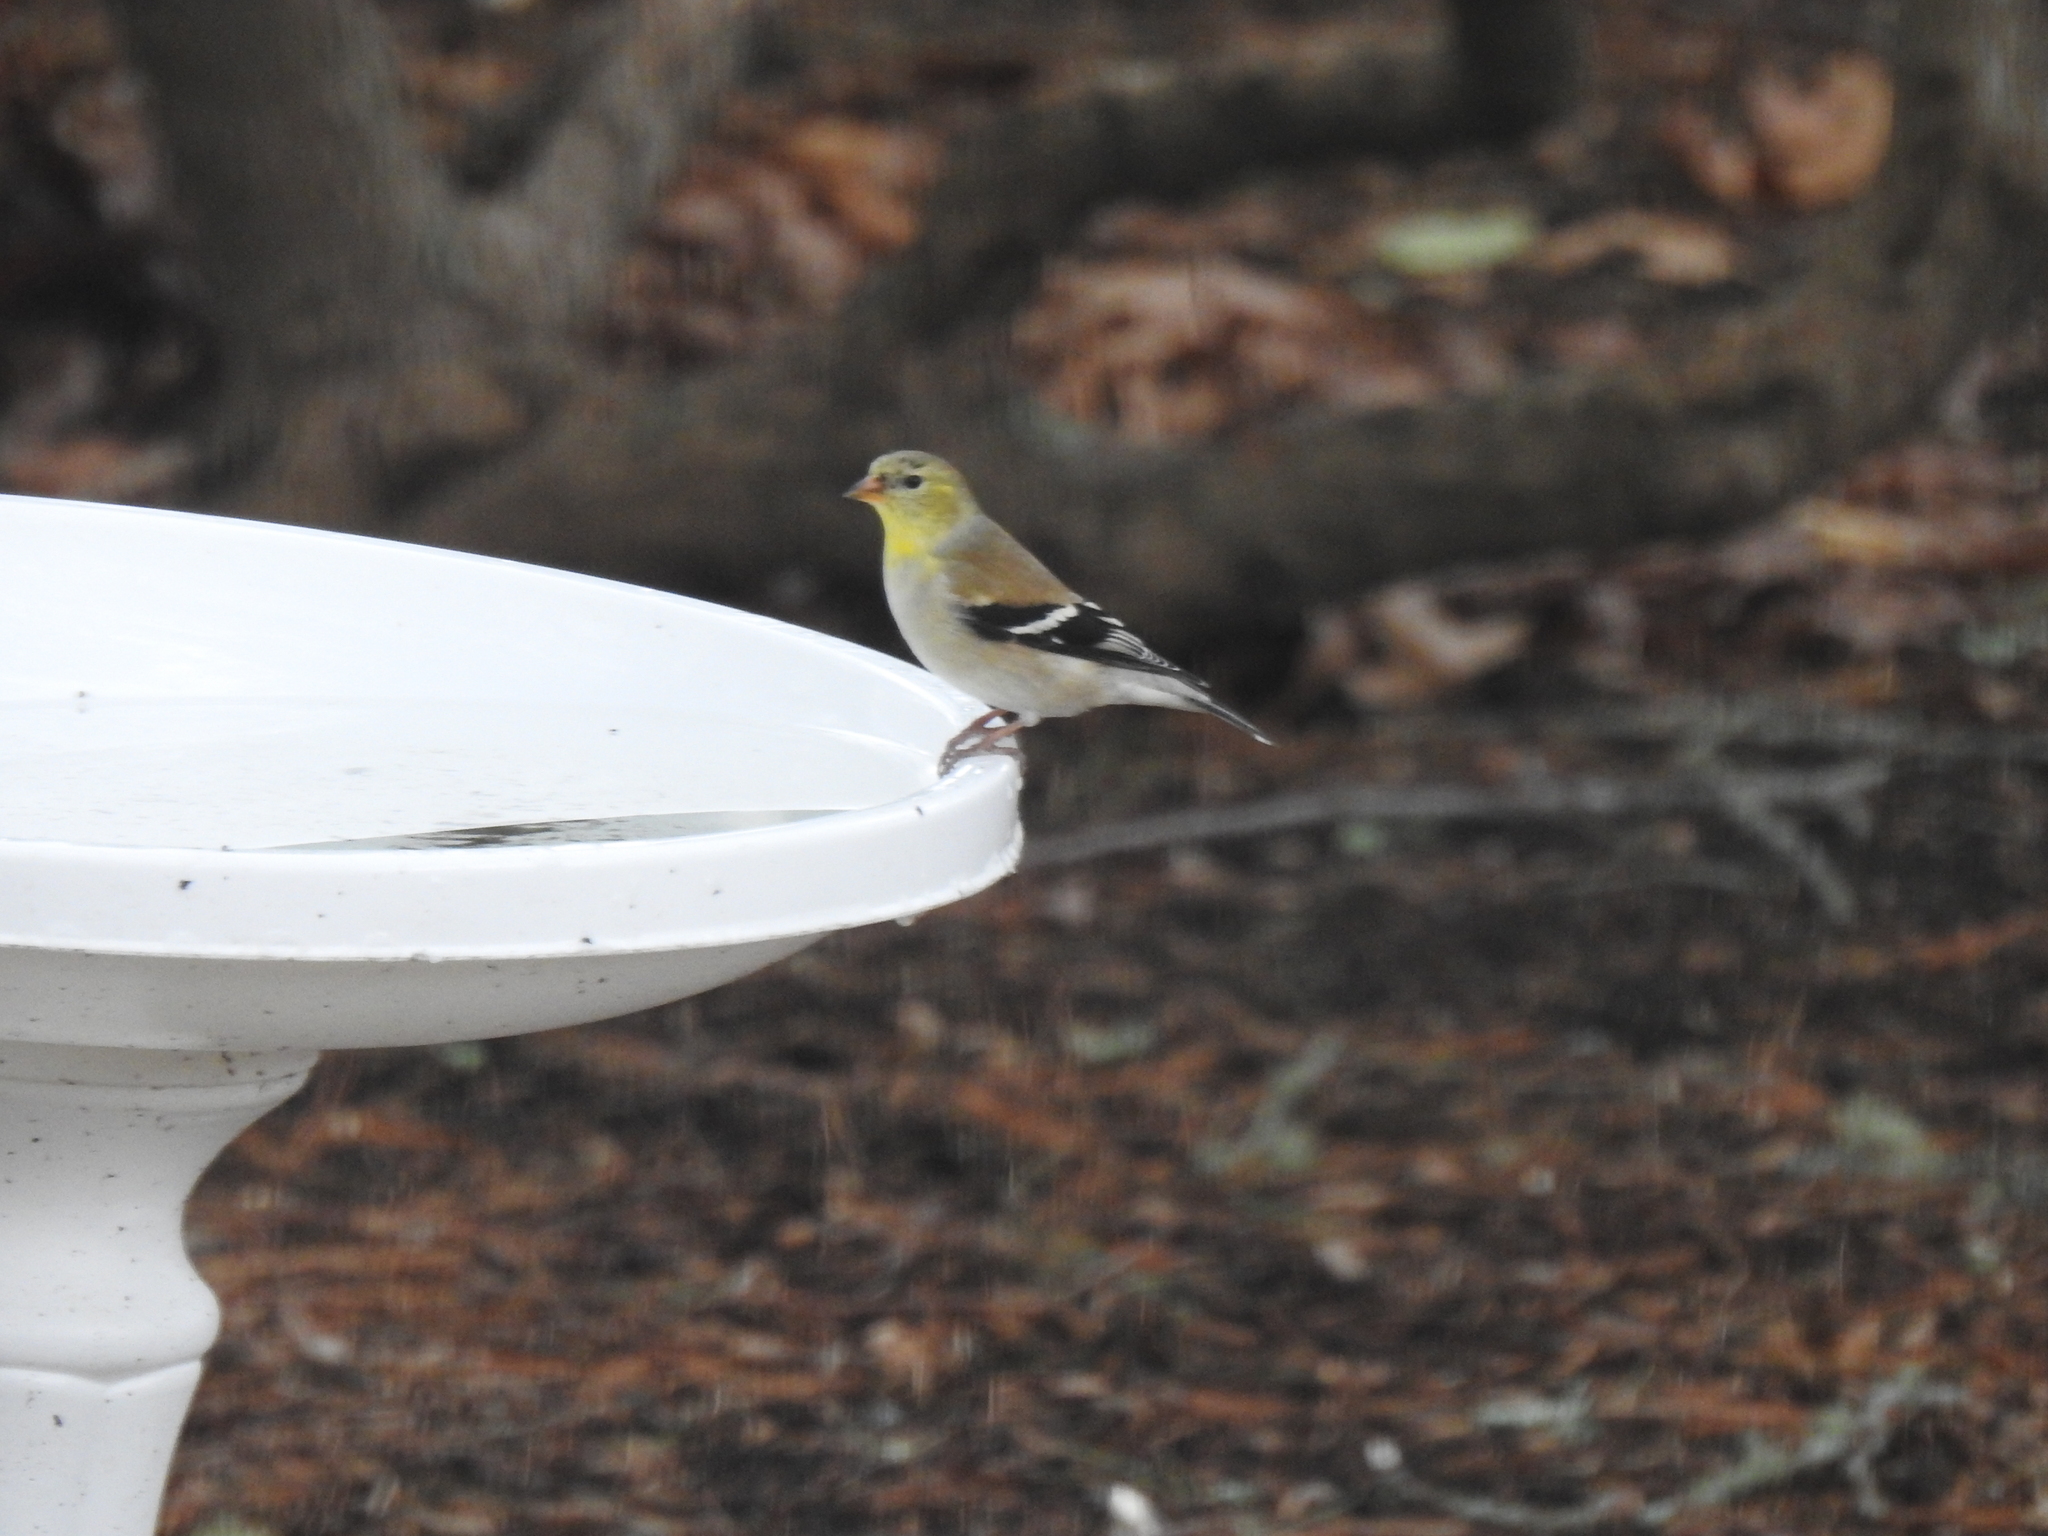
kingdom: Animalia
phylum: Chordata
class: Aves
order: Passeriformes
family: Fringillidae
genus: Spinus
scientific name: Spinus tristis
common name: American goldfinch
